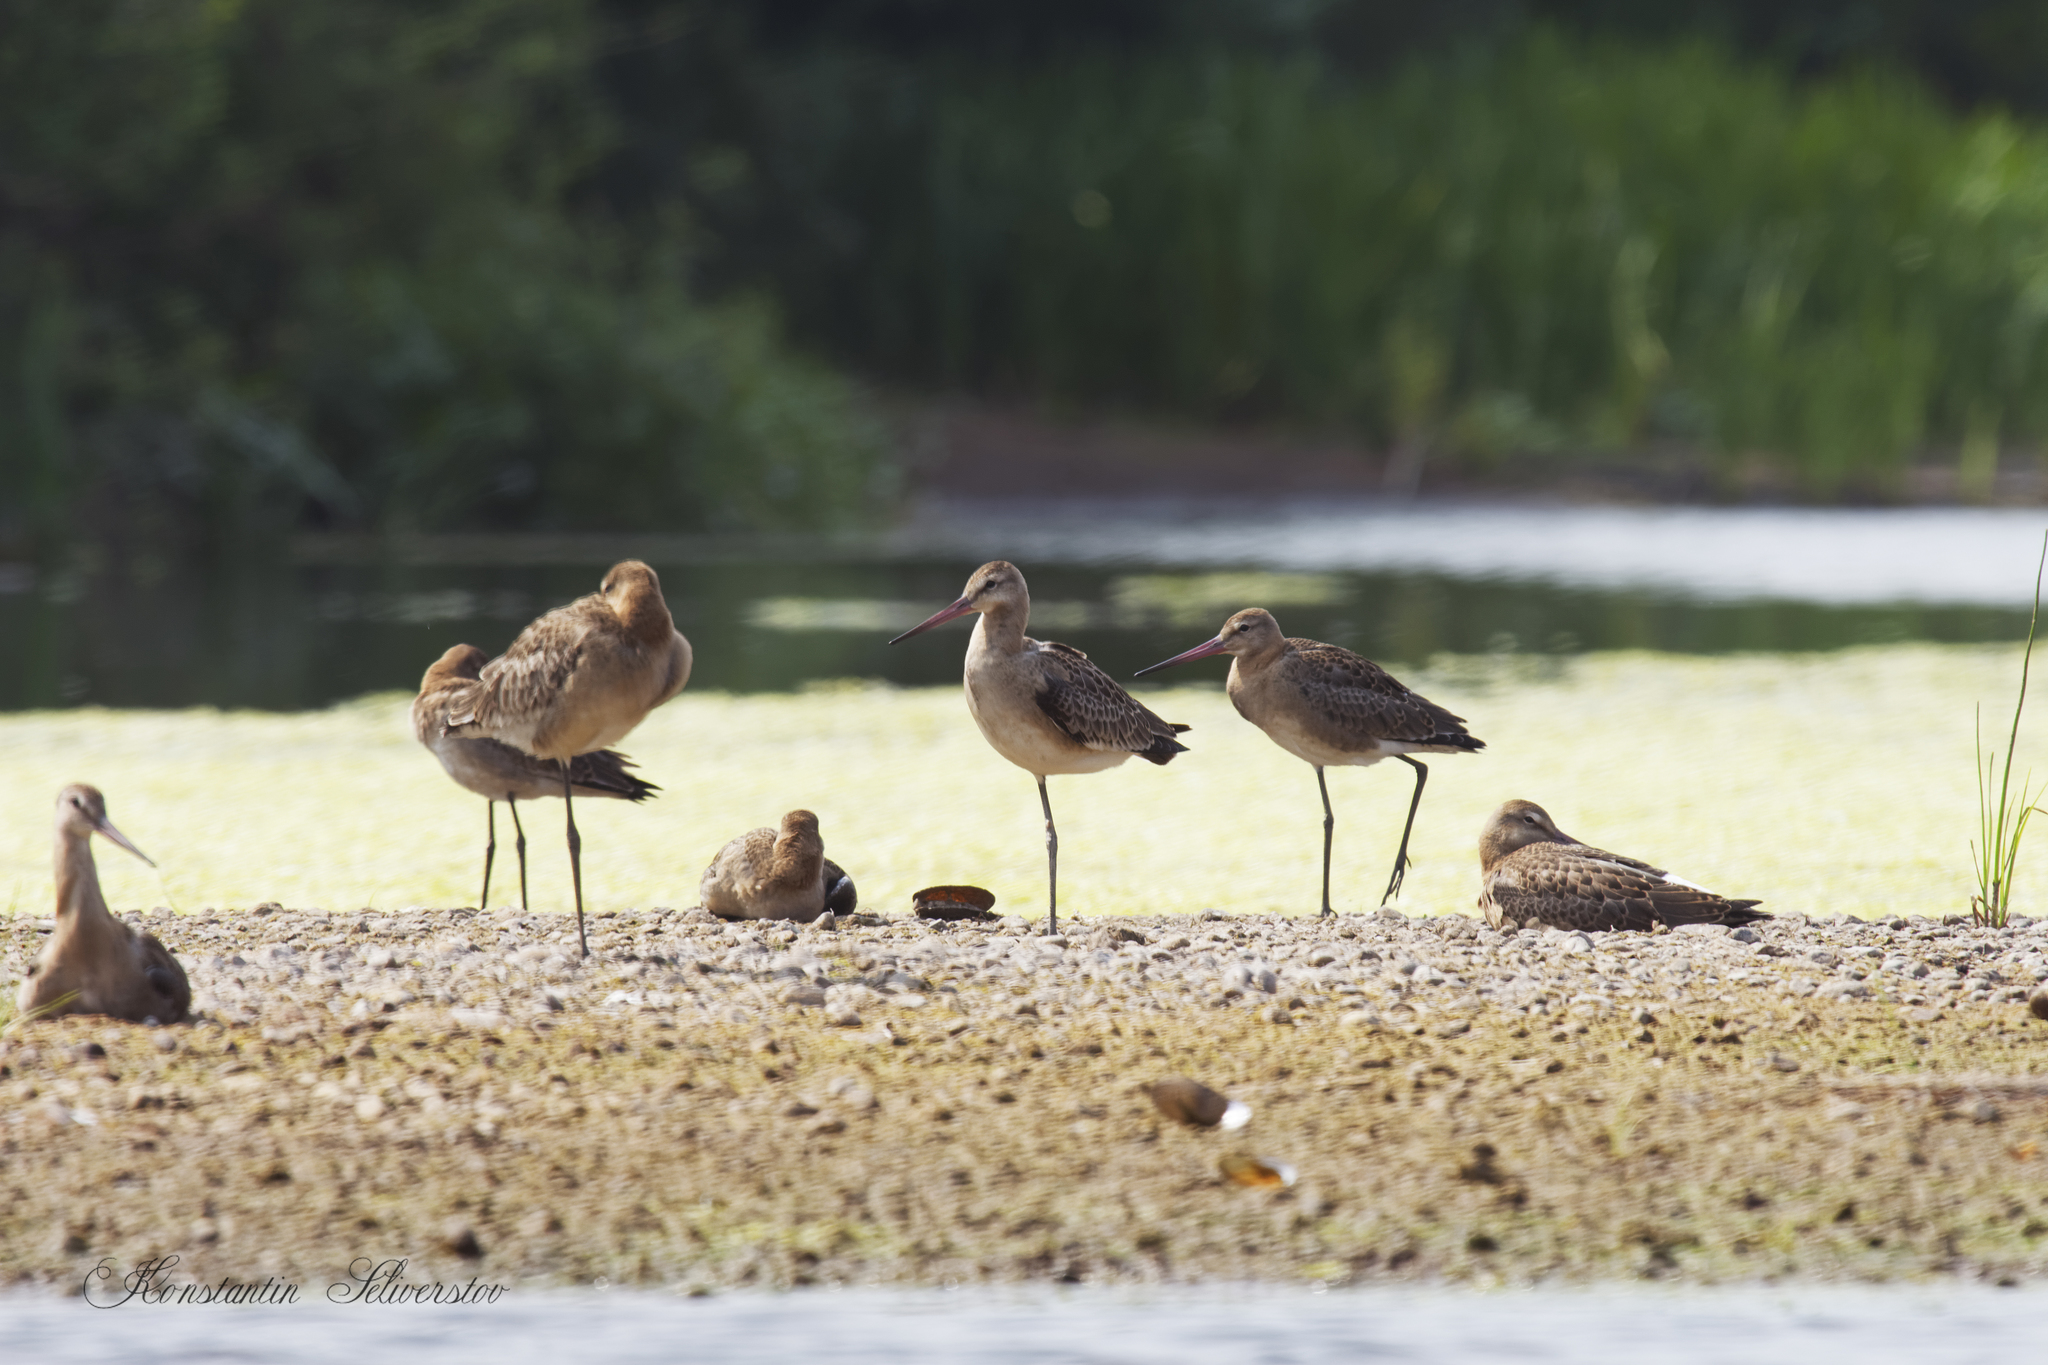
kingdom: Animalia
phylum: Chordata
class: Aves
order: Charadriiformes
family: Scolopacidae
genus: Limosa
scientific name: Limosa limosa
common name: Black-tailed godwit
